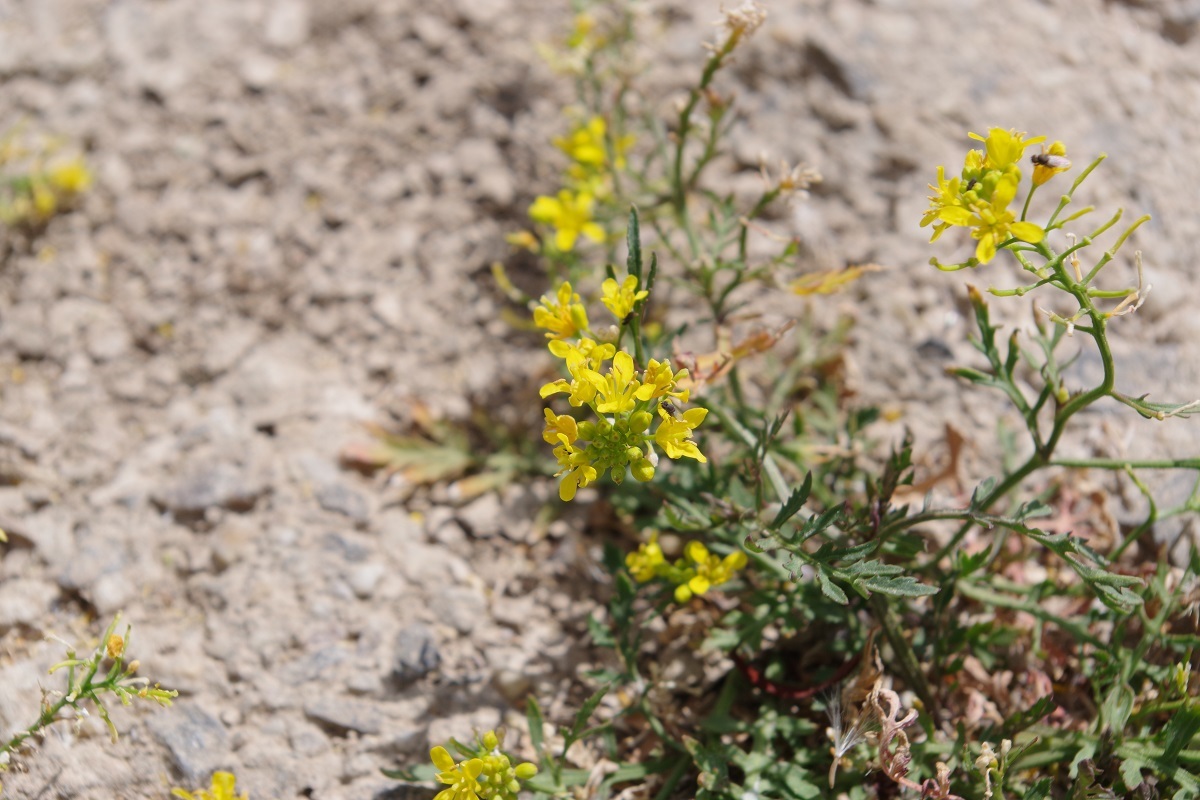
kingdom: Plantae
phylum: Tracheophyta
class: Magnoliopsida
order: Brassicales
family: Brassicaceae
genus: Rorippa
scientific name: Rorippa sylvestris
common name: Creeping yellowcress
